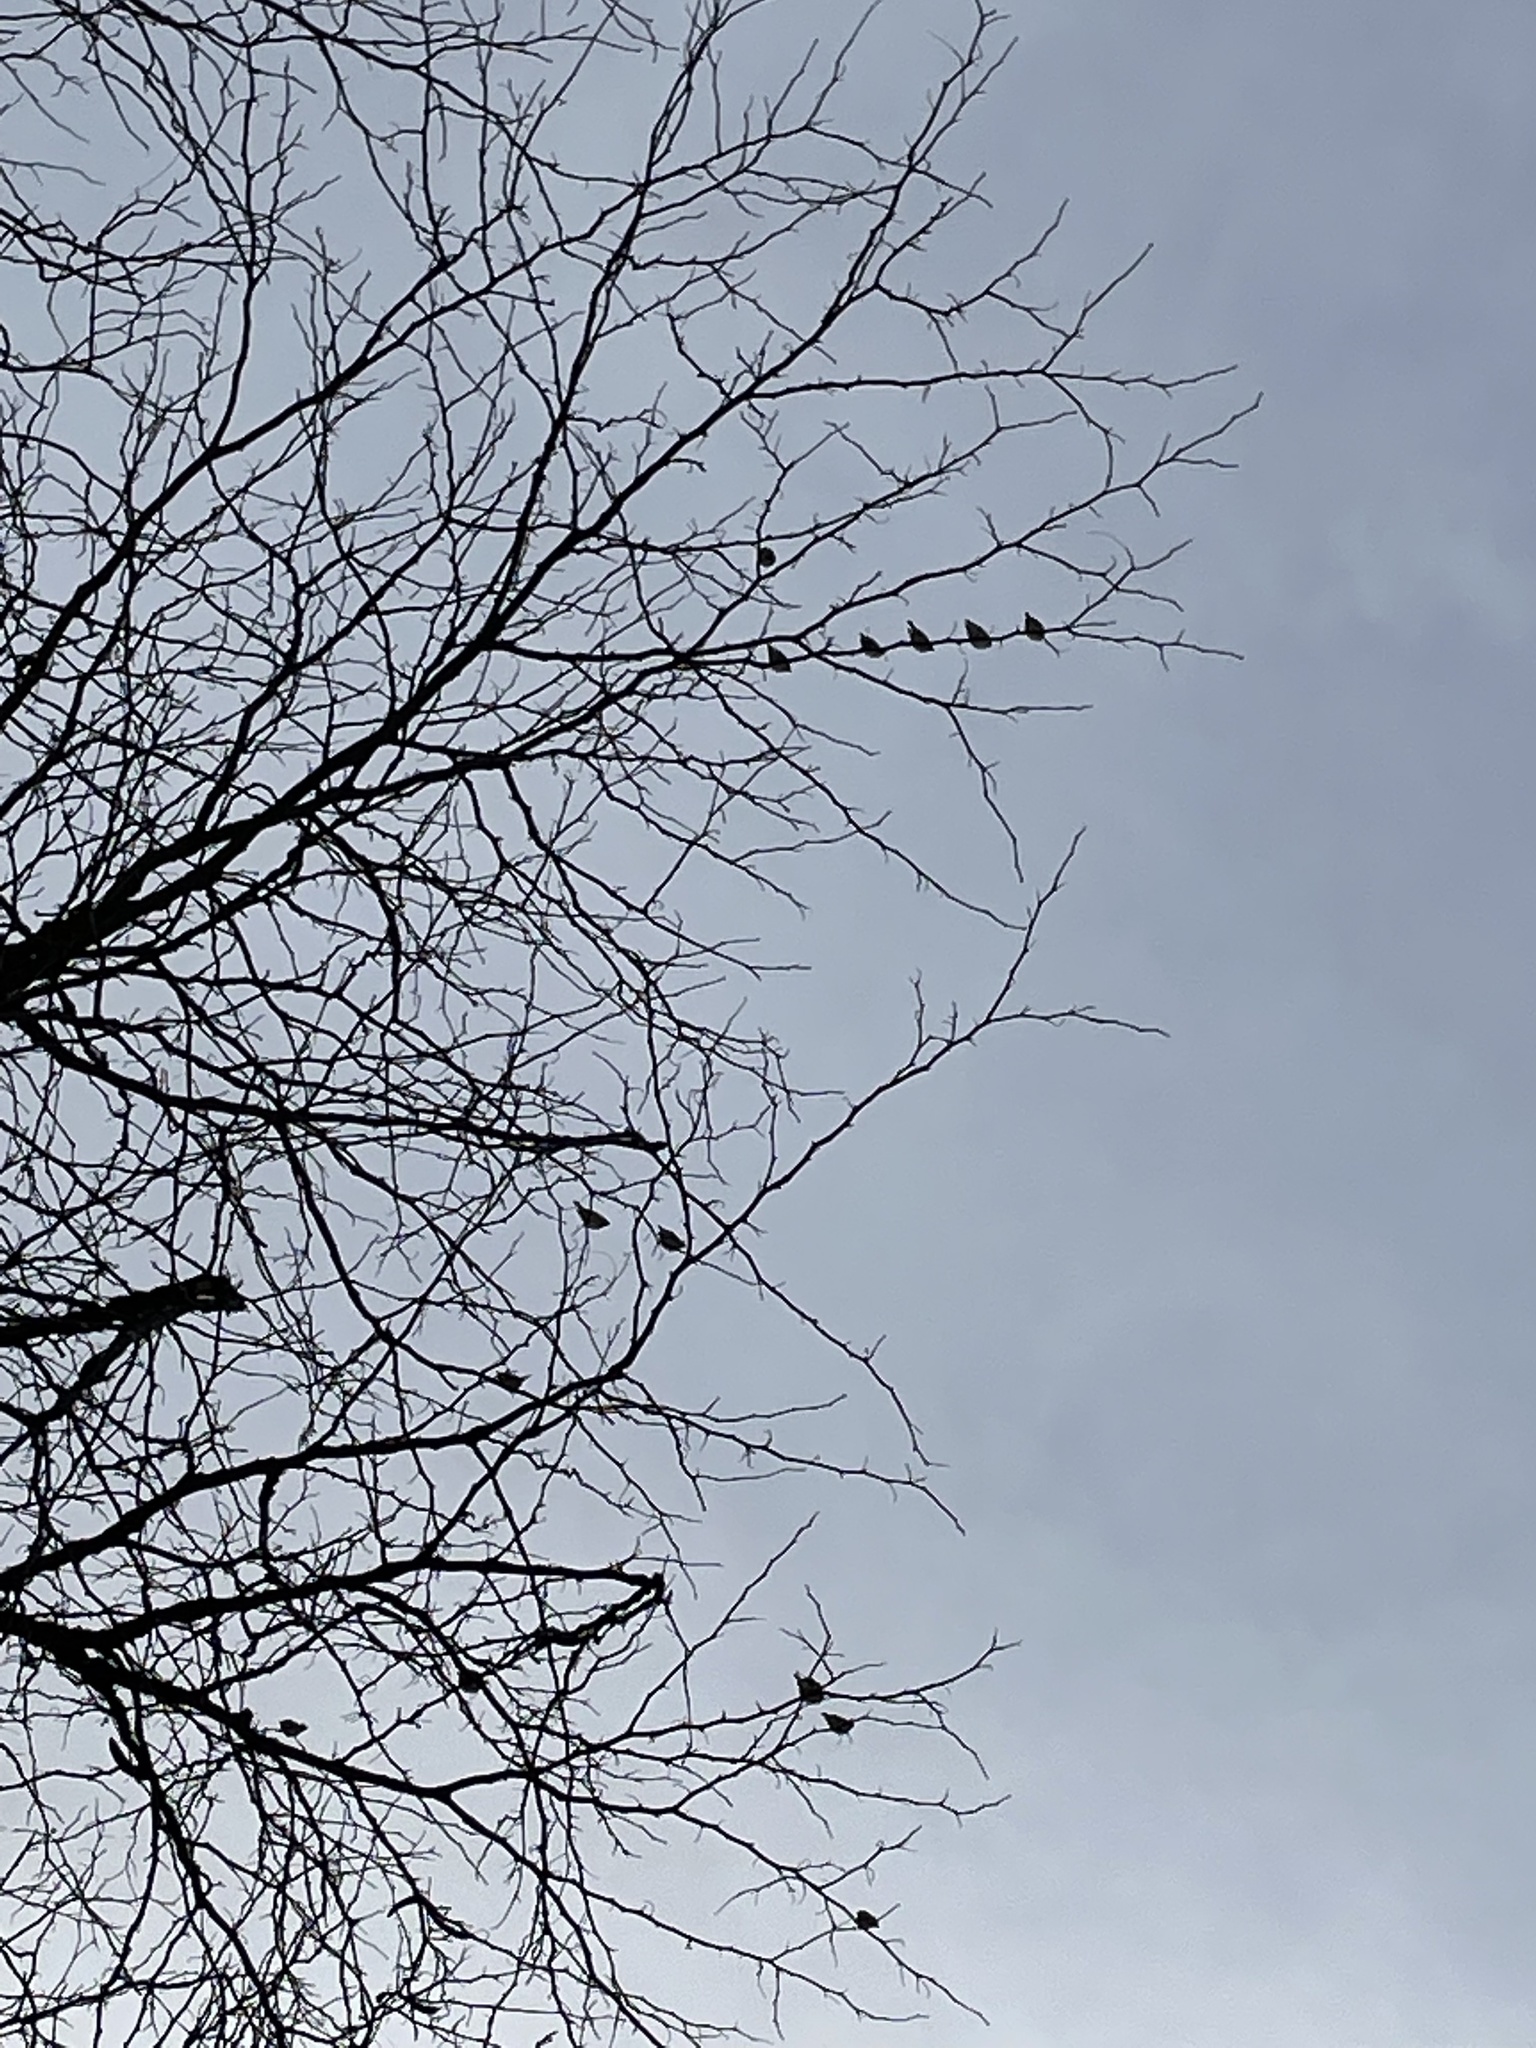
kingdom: Animalia
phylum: Chordata
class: Aves
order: Passeriformes
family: Bombycillidae
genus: Bombycilla
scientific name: Bombycilla cedrorum
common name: Cedar waxwing
